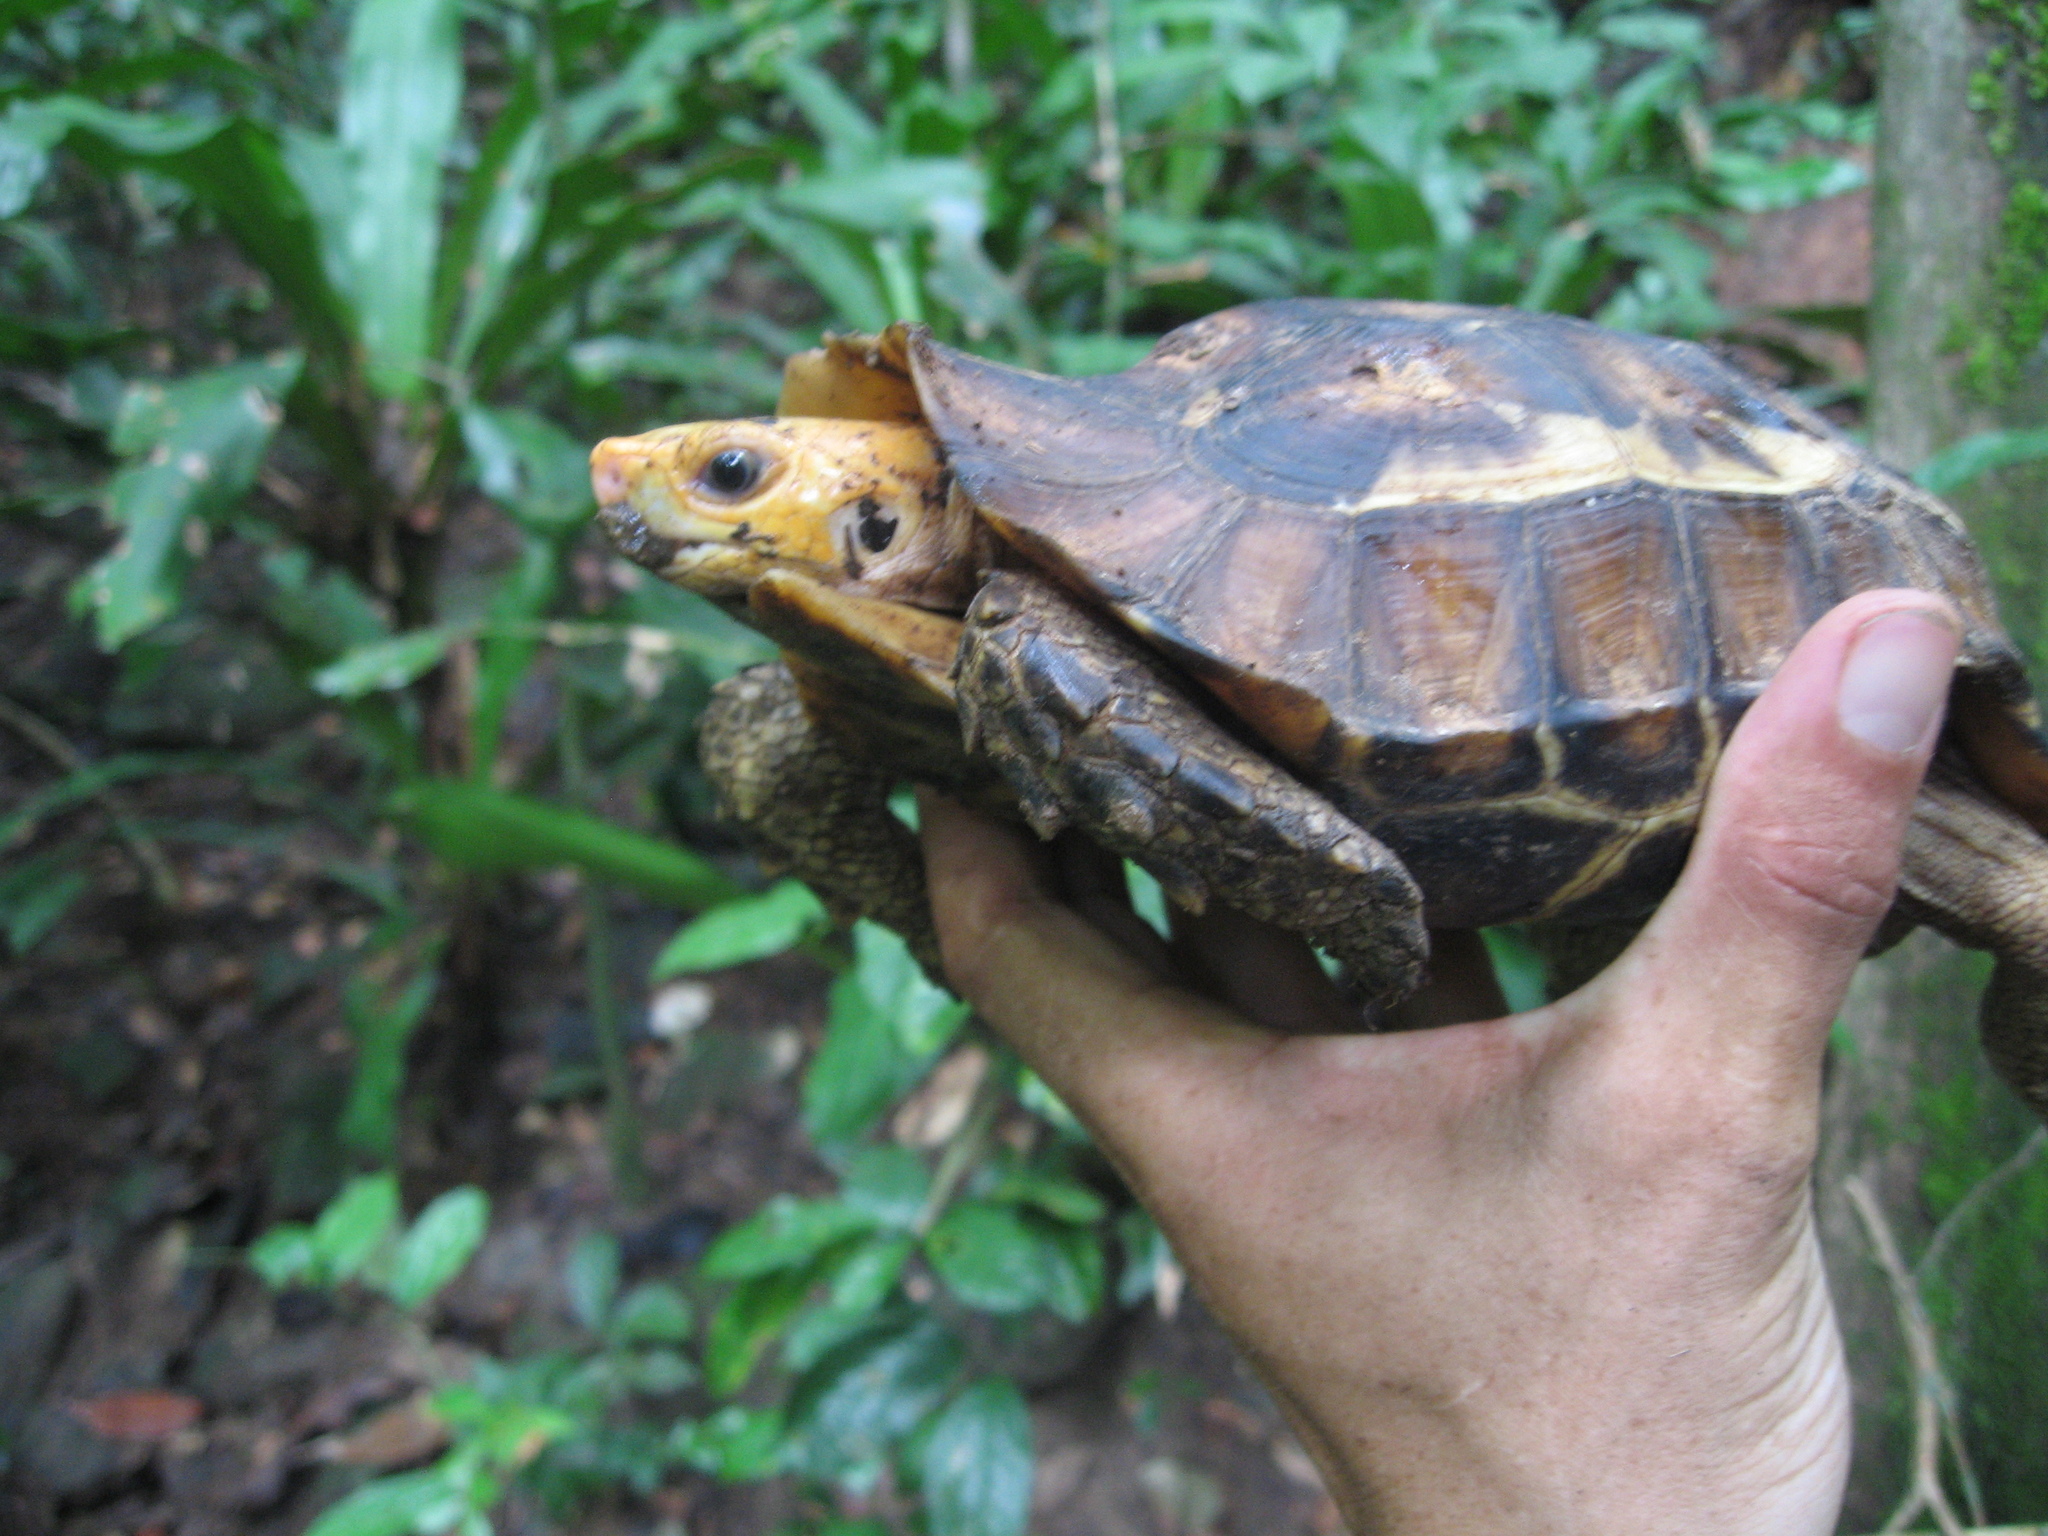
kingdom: Animalia
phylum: Chordata
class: Testudines
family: Testudinidae
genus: Kinixys
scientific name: Kinixys erosa
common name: Serrated hinge-back tortoise
